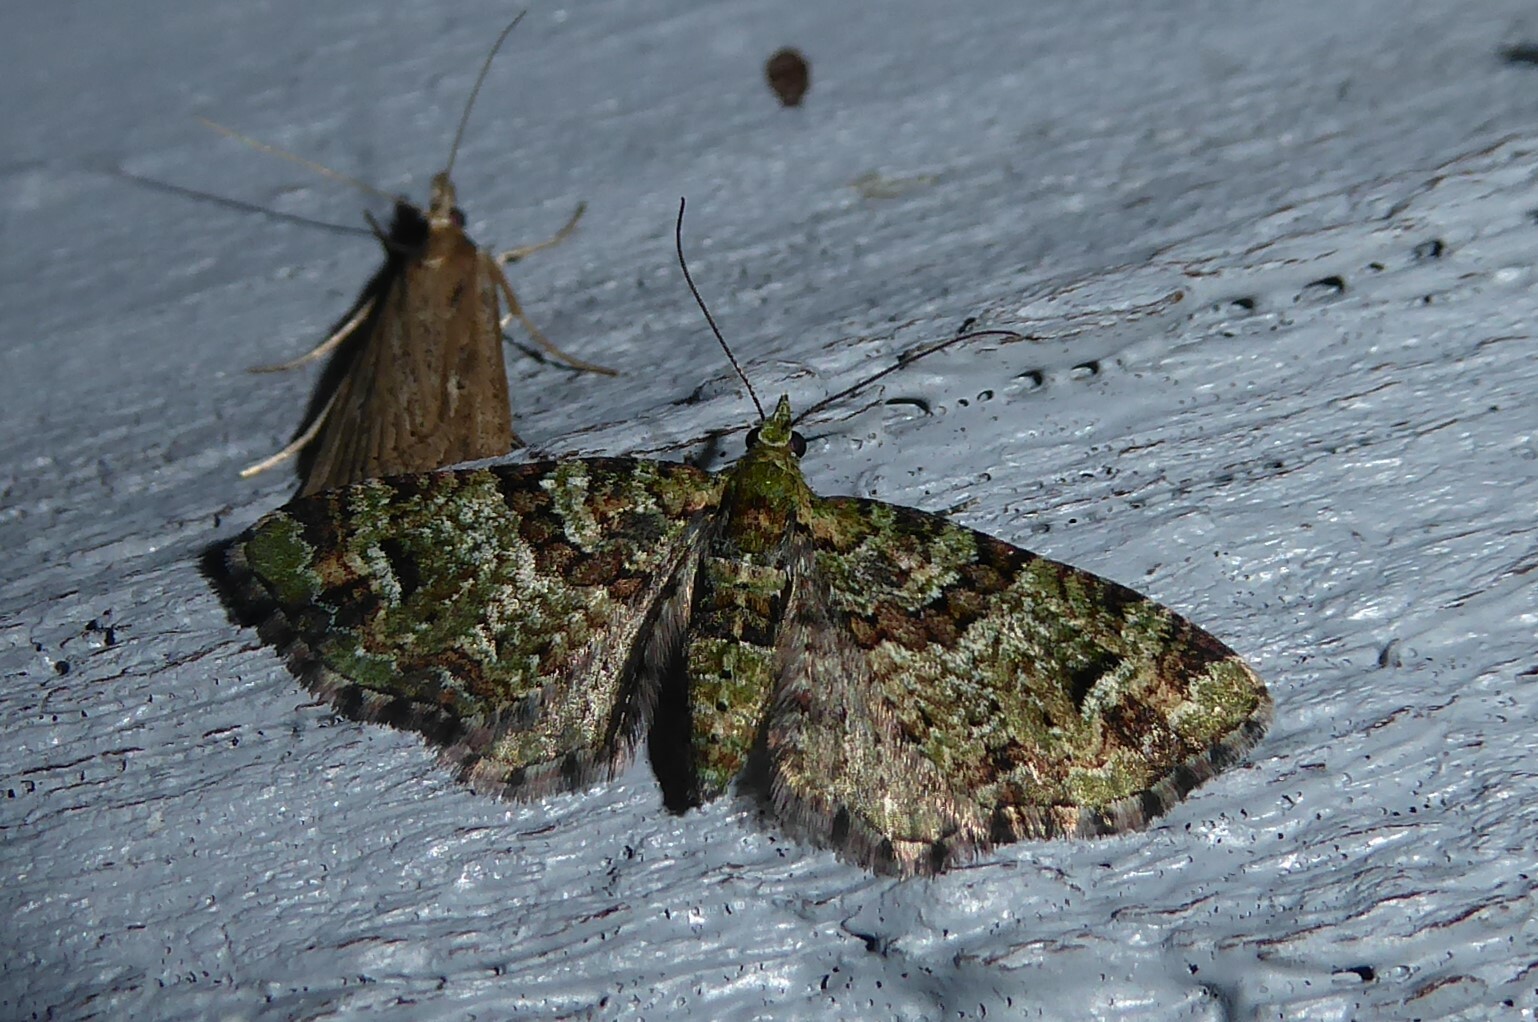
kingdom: Animalia
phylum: Arthropoda
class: Insecta
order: Lepidoptera
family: Geometridae
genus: Pasiphila
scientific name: Pasiphila bilineolata
